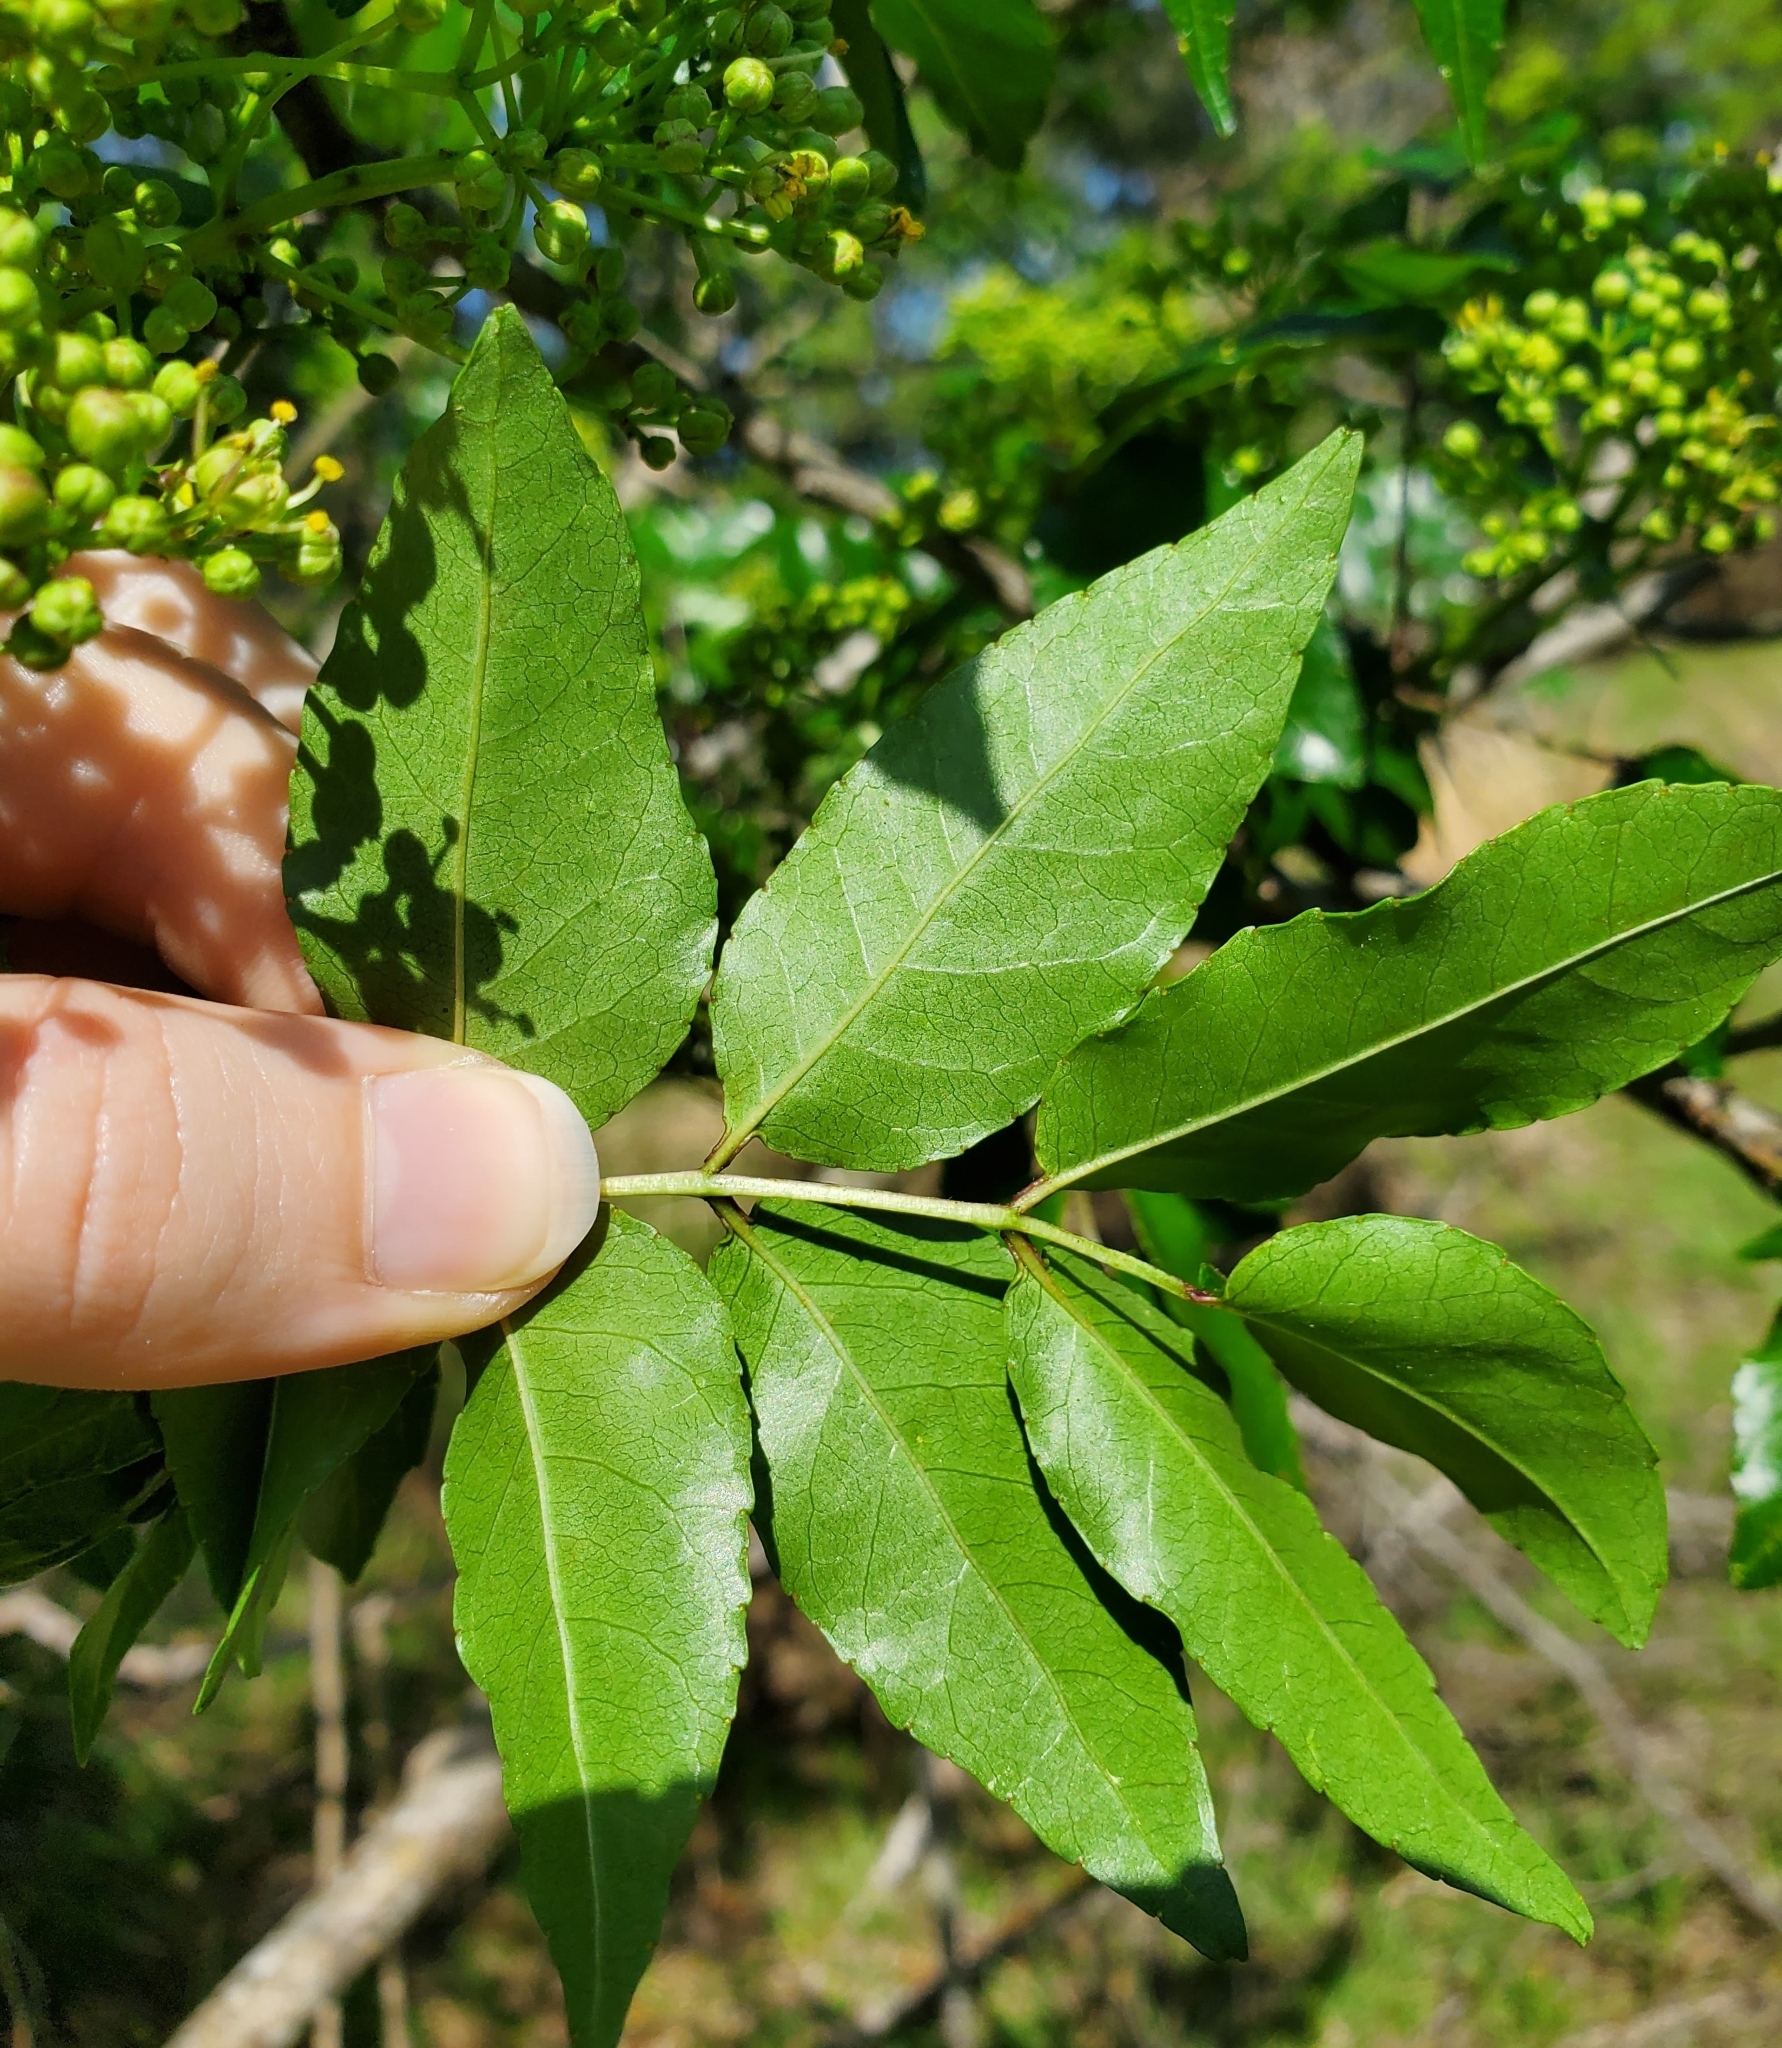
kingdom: Plantae
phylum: Tracheophyta
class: Magnoliopsida
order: Sapindales
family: Rutaceae
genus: Zanthoxylum
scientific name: Zanthoxylum clava-herculis
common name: Hercules'-club
